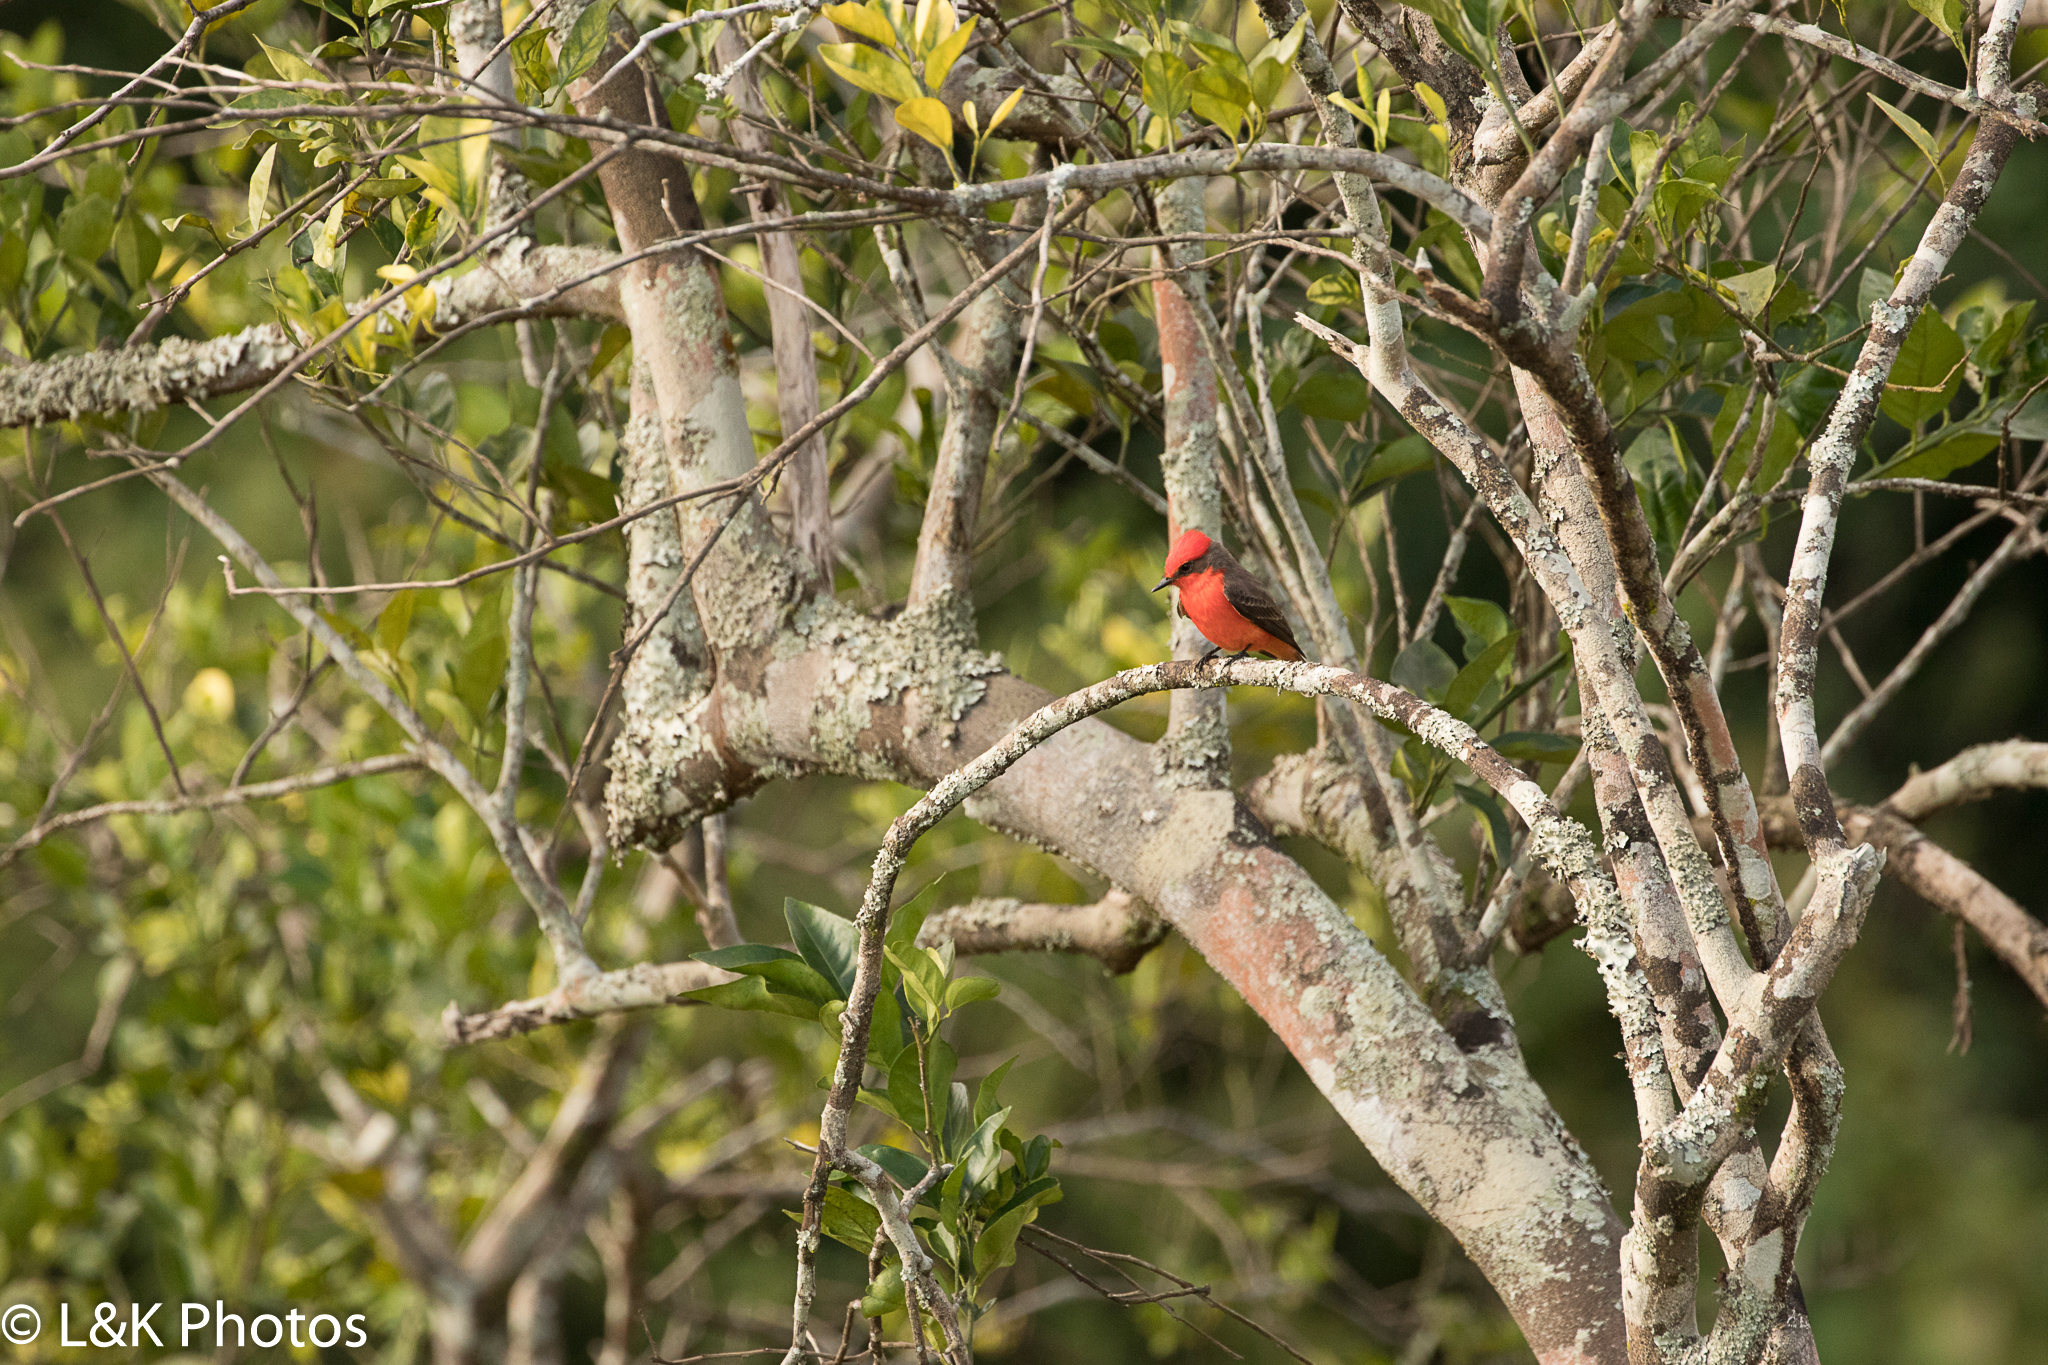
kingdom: Animalia
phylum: Chordata
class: Aves
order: Passeriformes
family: Tyrannidae
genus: Pyrocephalus
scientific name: Pyrocephalus rubinus
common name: Vermilion flycatcher
